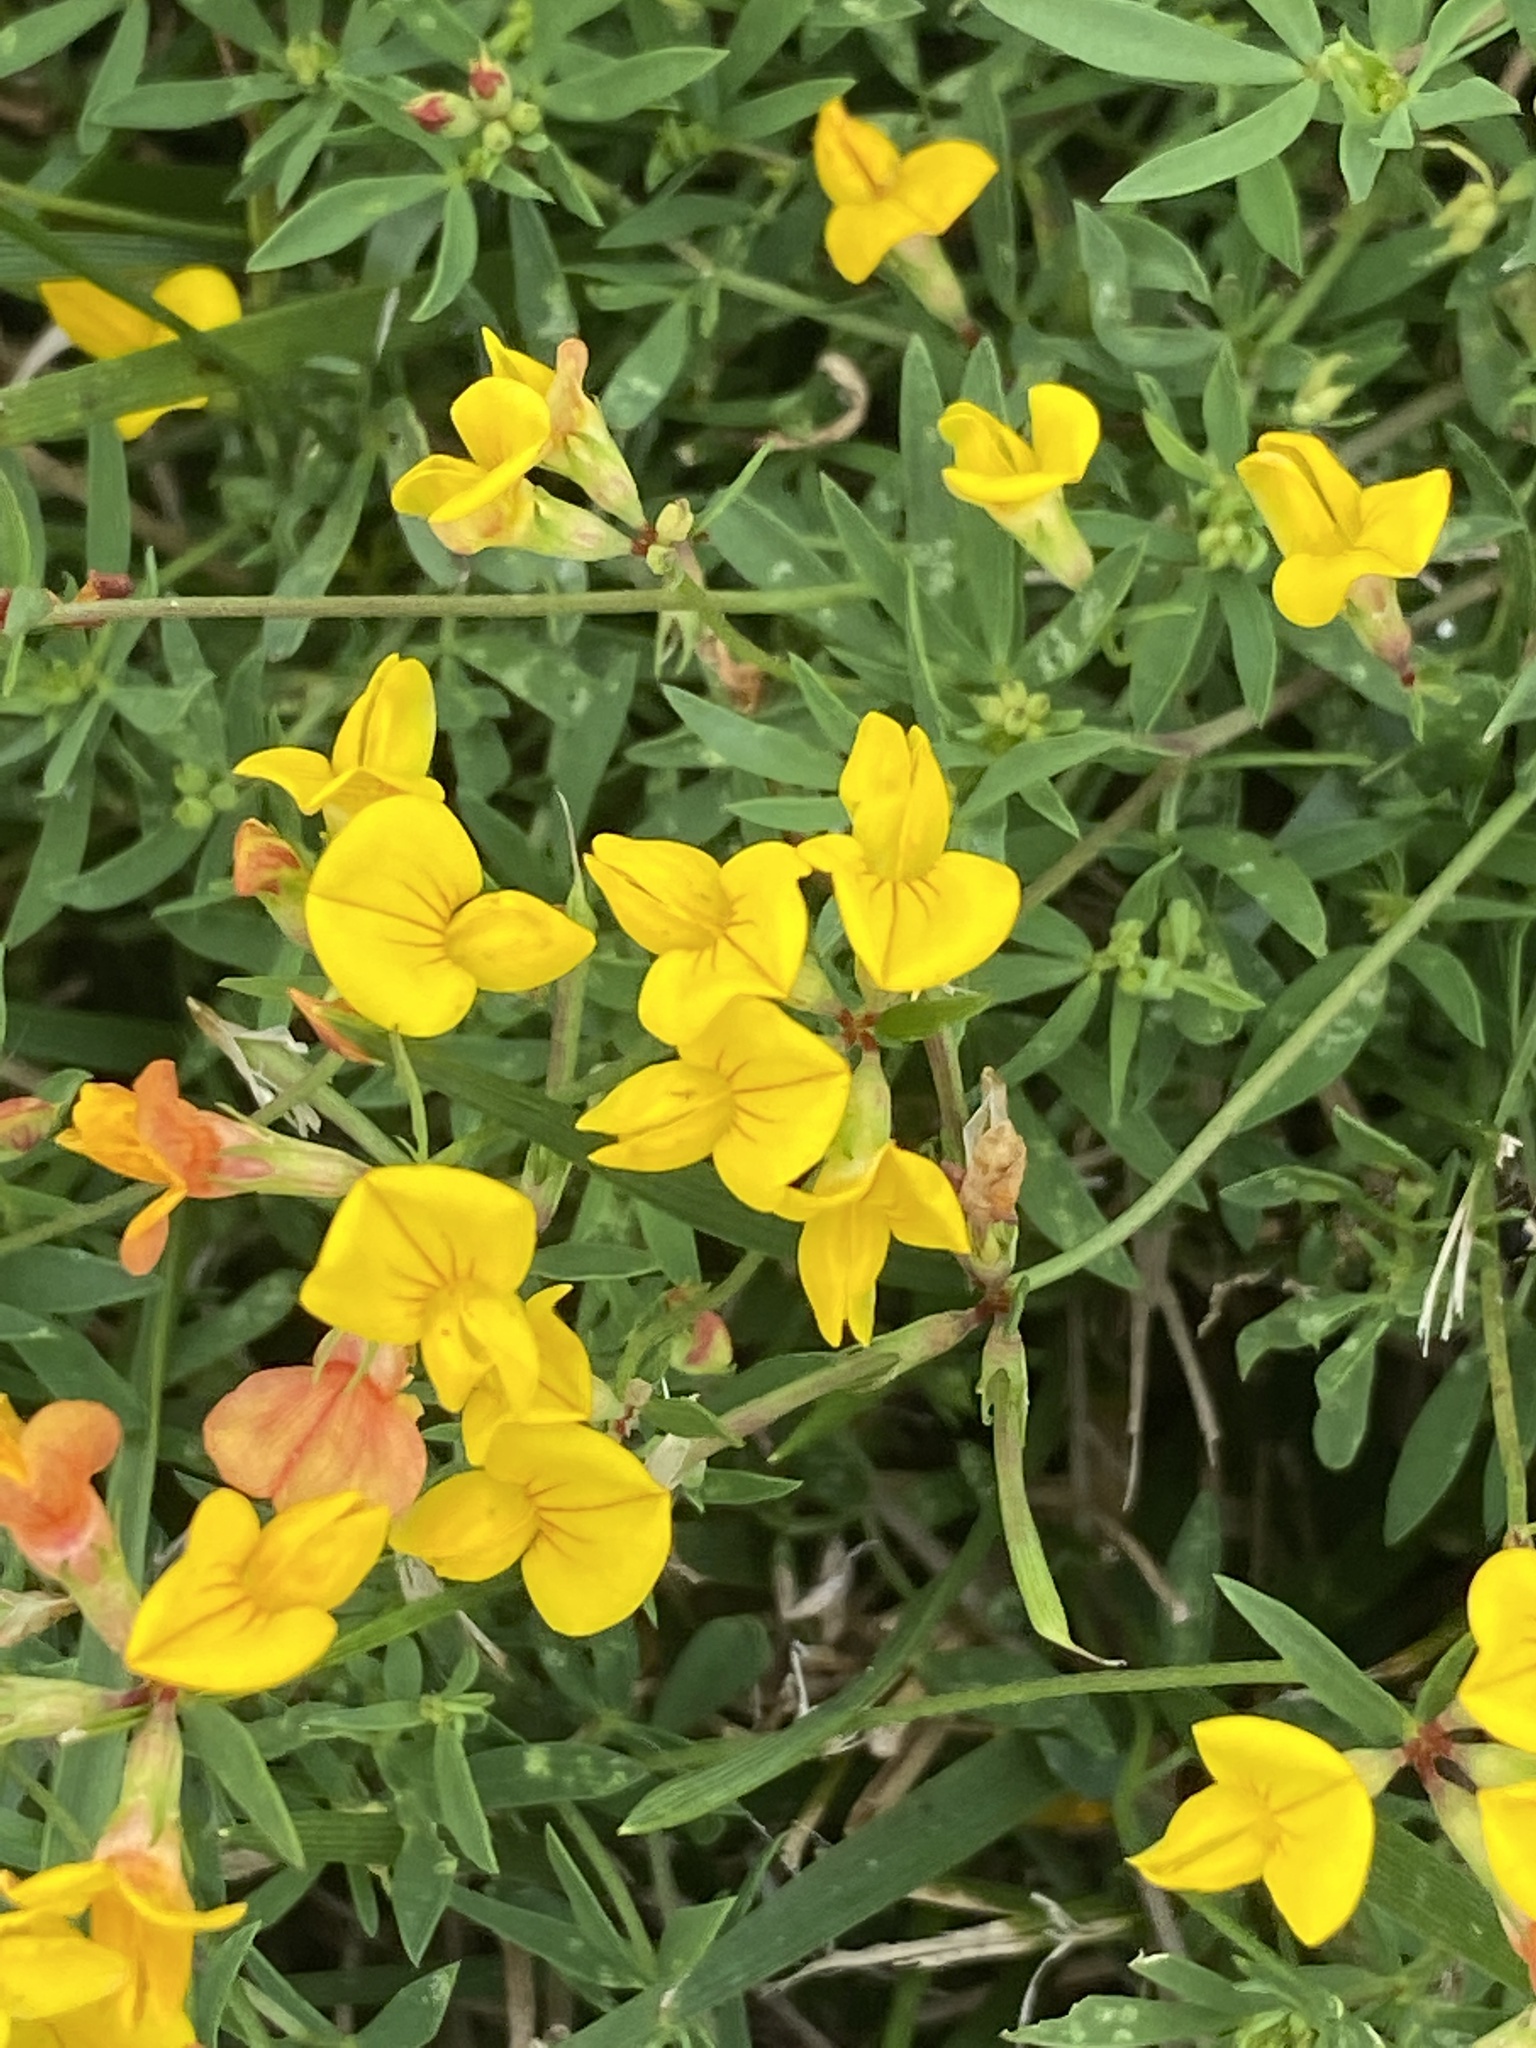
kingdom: Plantae
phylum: Tracheophyta
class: Magnoliopsida
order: Fabales
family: Fabaceae
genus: Lotus
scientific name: Lotus tenuis
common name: Narrow-leaved bird's-foot-trefoil
